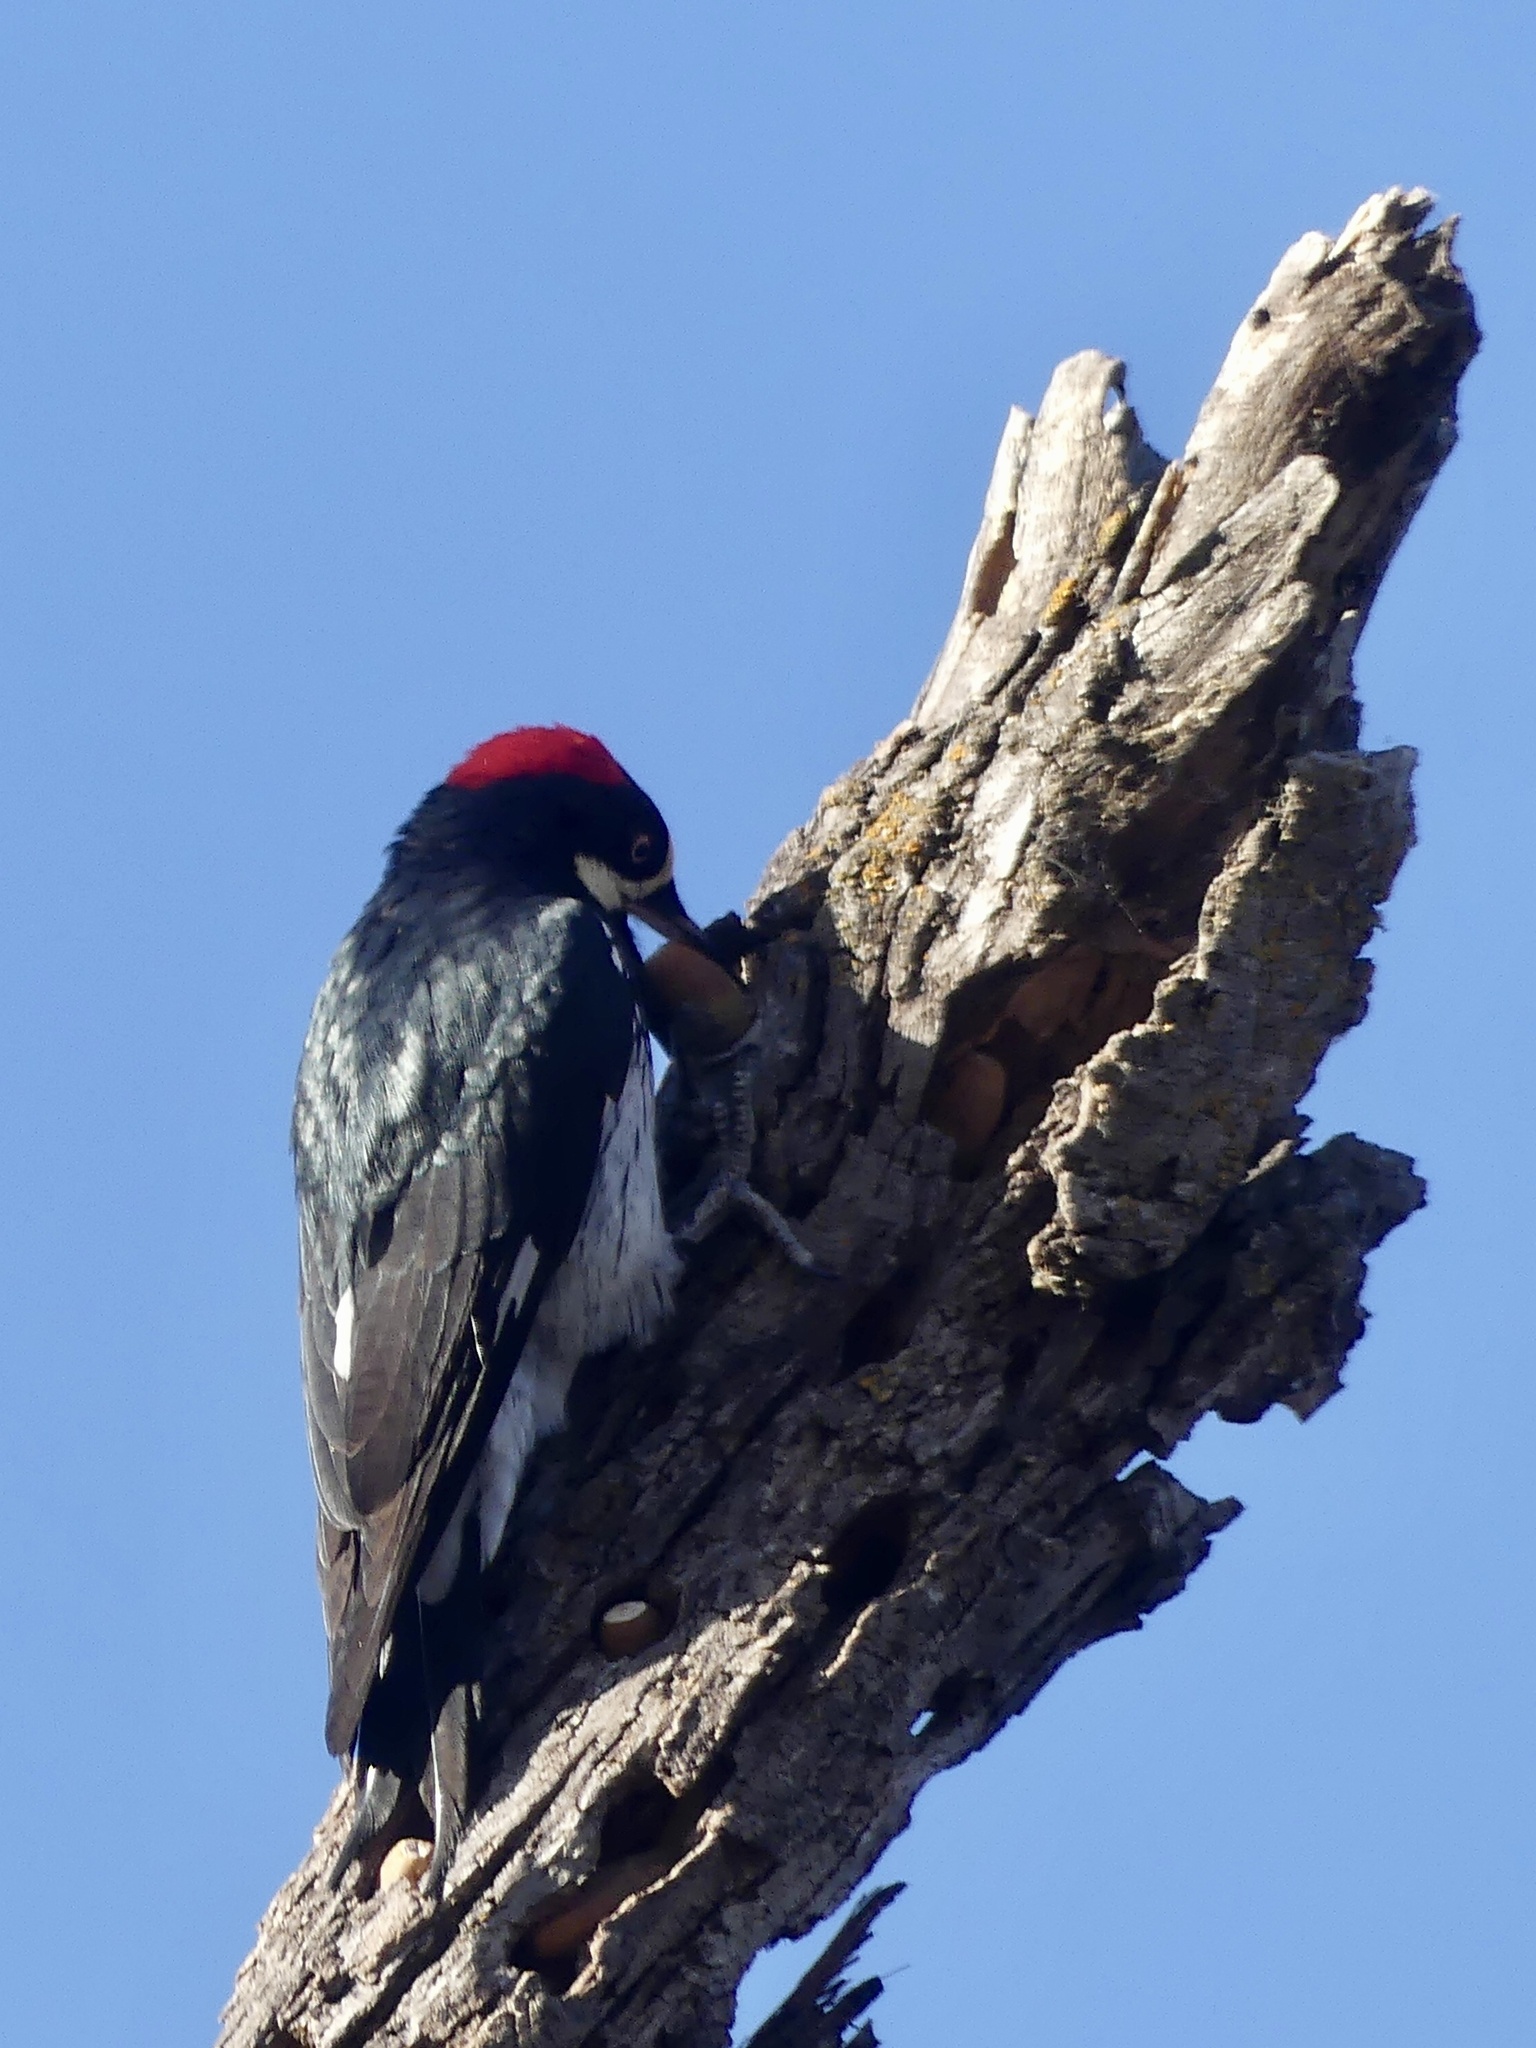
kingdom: Animalia
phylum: Chordata
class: Aves
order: Piciformes
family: Picidae
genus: Melanerpes
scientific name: Melanerpes formicivorus
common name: Acorn woodpecker
